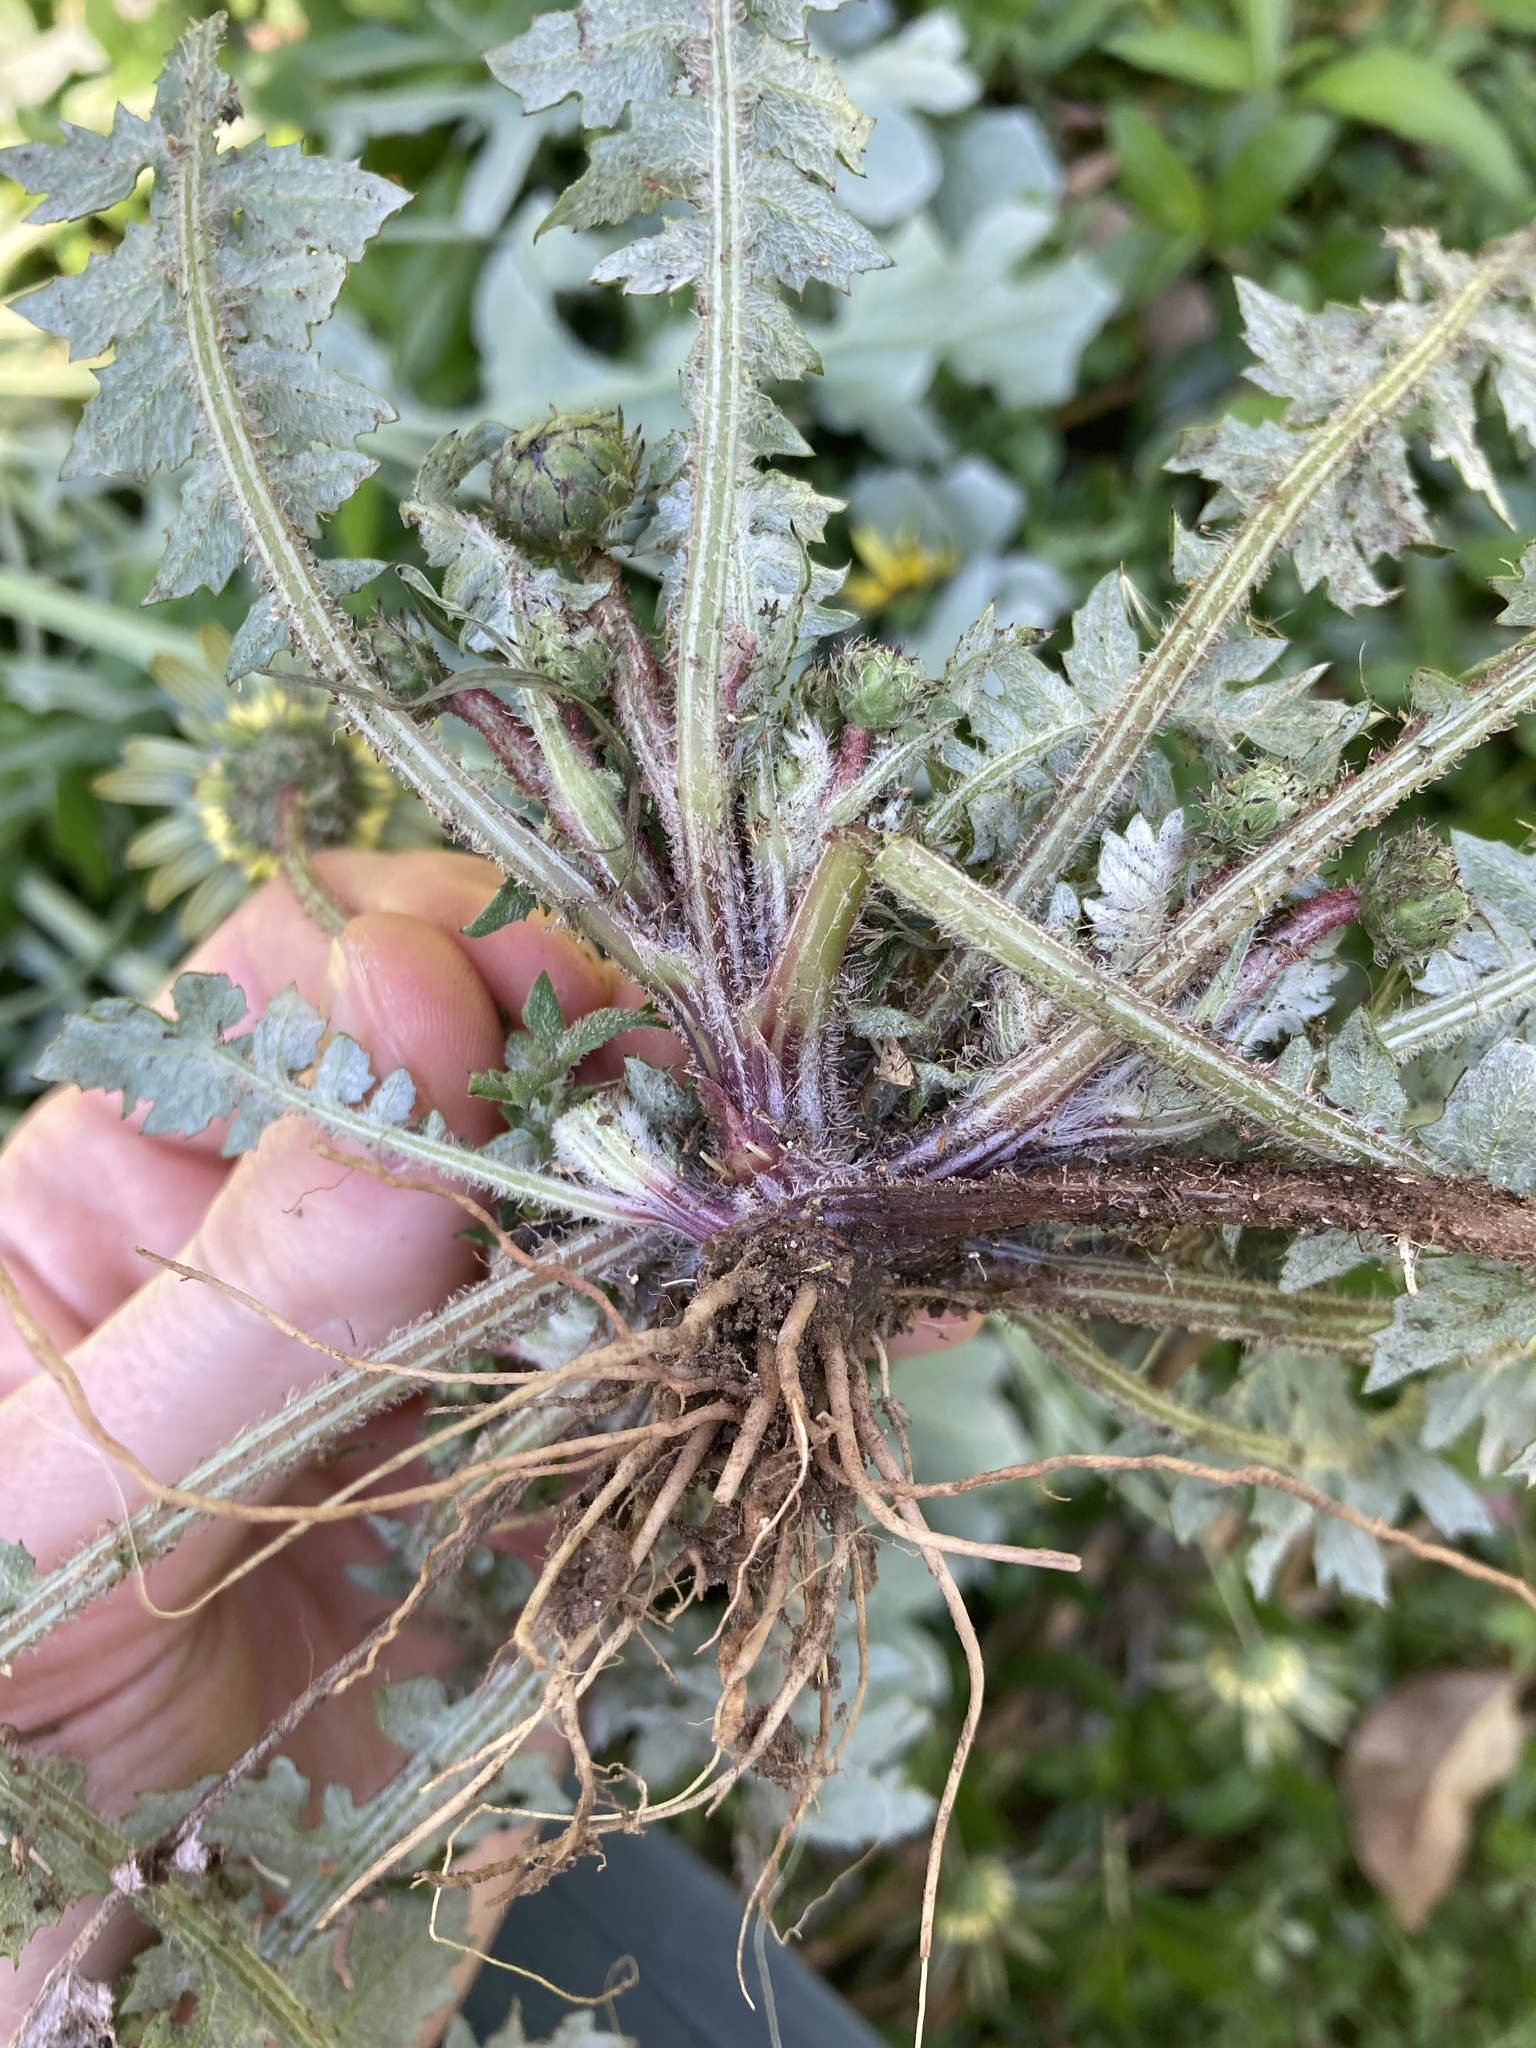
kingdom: Plantae
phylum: Tracheophyta
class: Magnoliopsida
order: Asterales
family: Asteraceae
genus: Arctotheca
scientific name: Arctotheca calendula
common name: Capeweed
